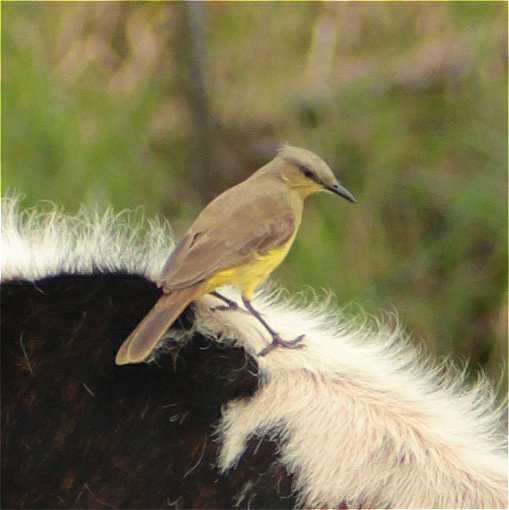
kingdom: Animalia
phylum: Chordata
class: Aves
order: Passeriformes
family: Tyrannidae
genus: Machetornis
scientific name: Machetornis rixosa
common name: Cattle tyrant
